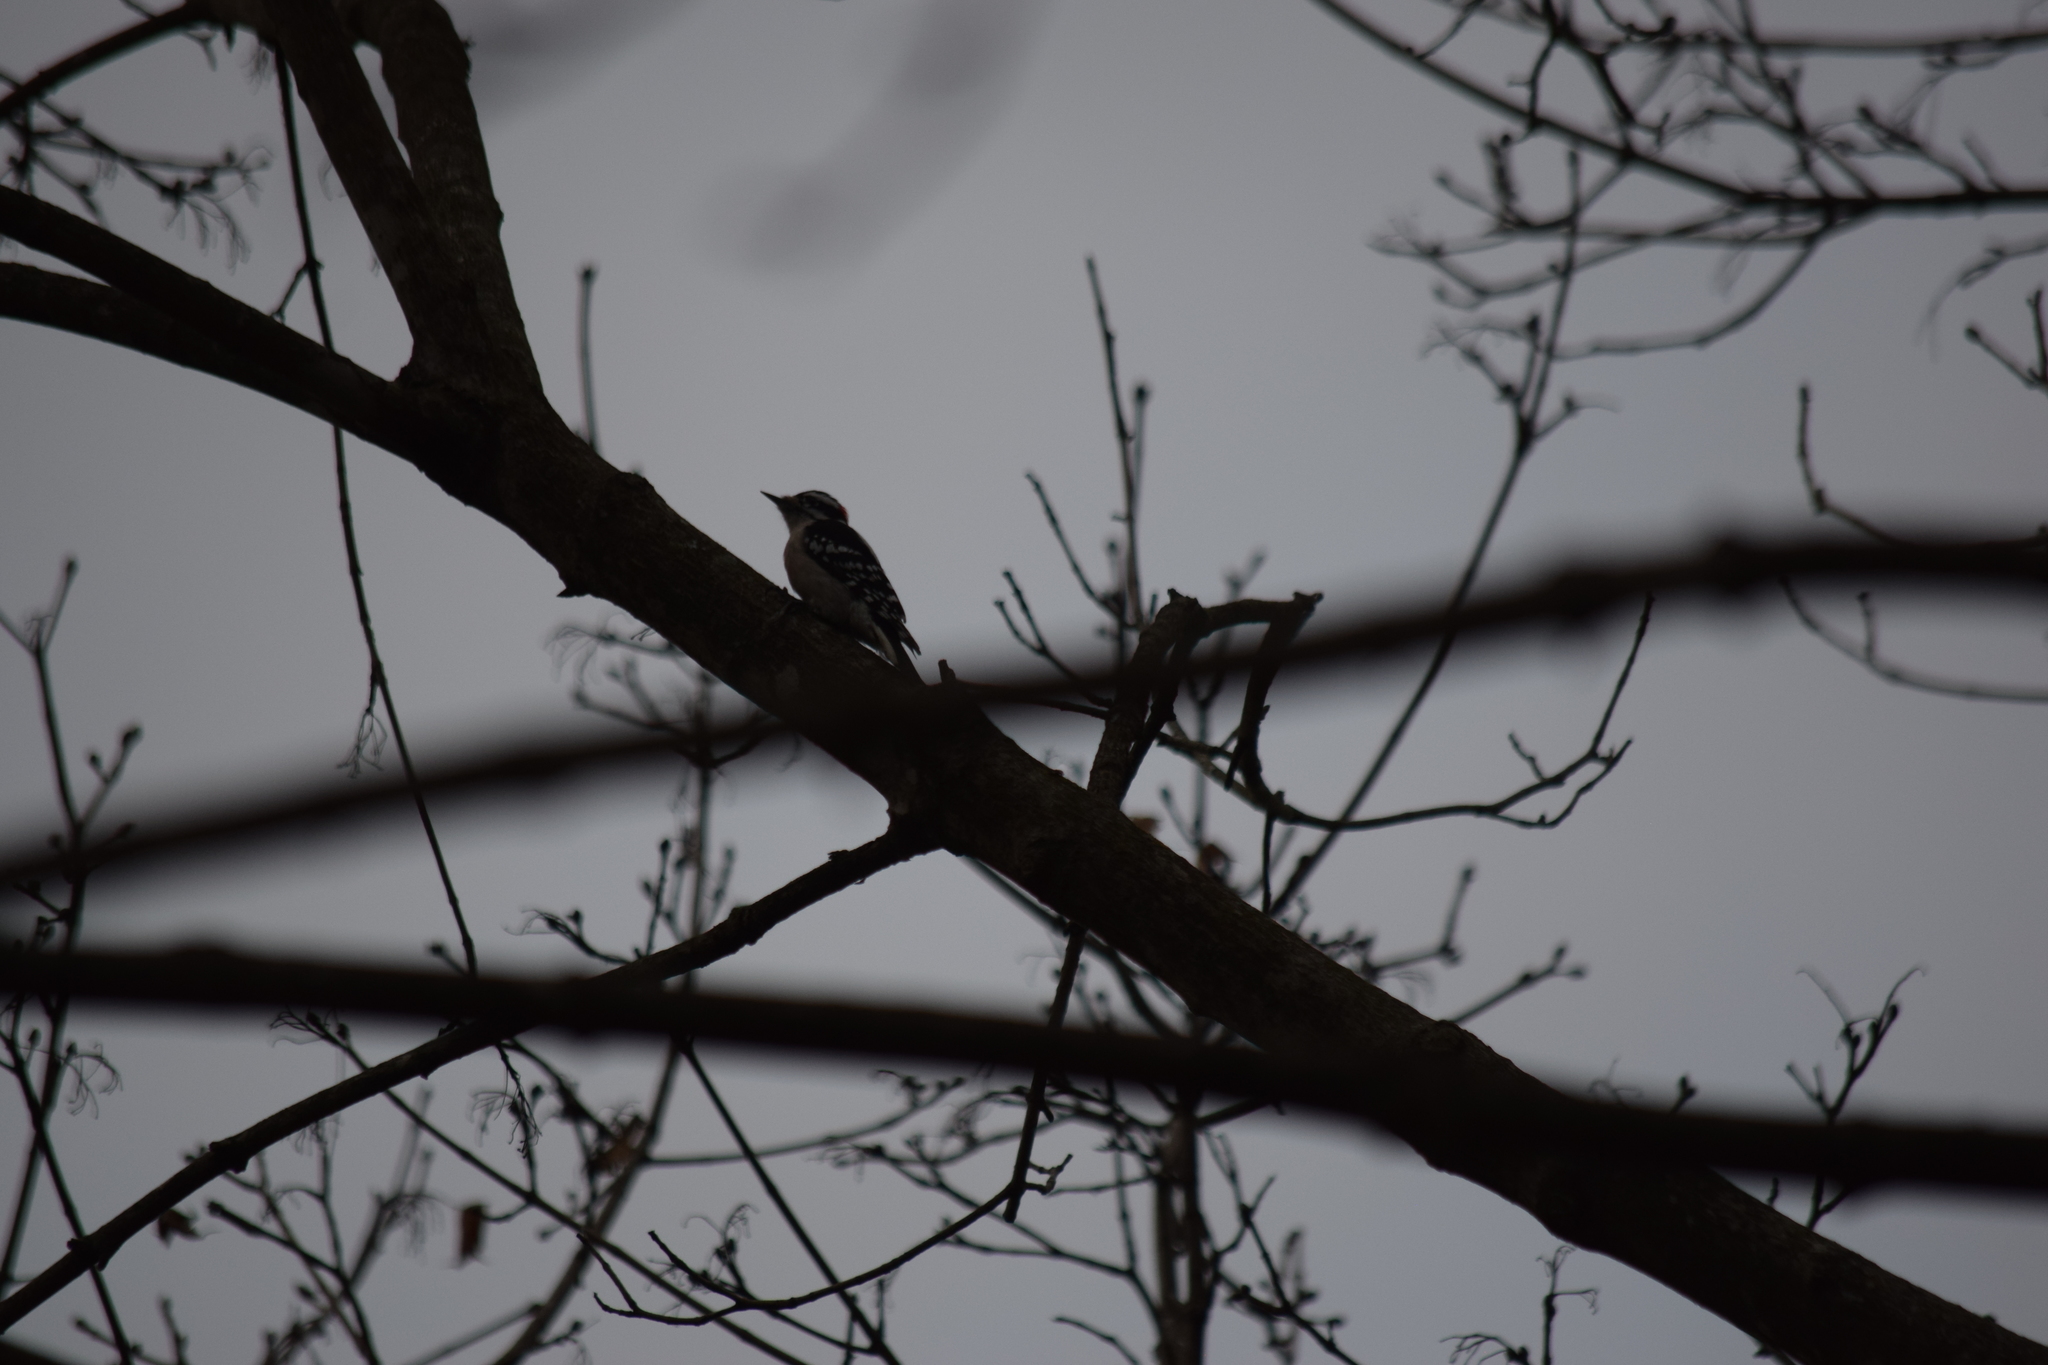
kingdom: Animalia
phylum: Chordata
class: Aves
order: Piciformes
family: Picidae
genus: Dryobates
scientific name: Dryobates pubescens
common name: Downy woodpecker
